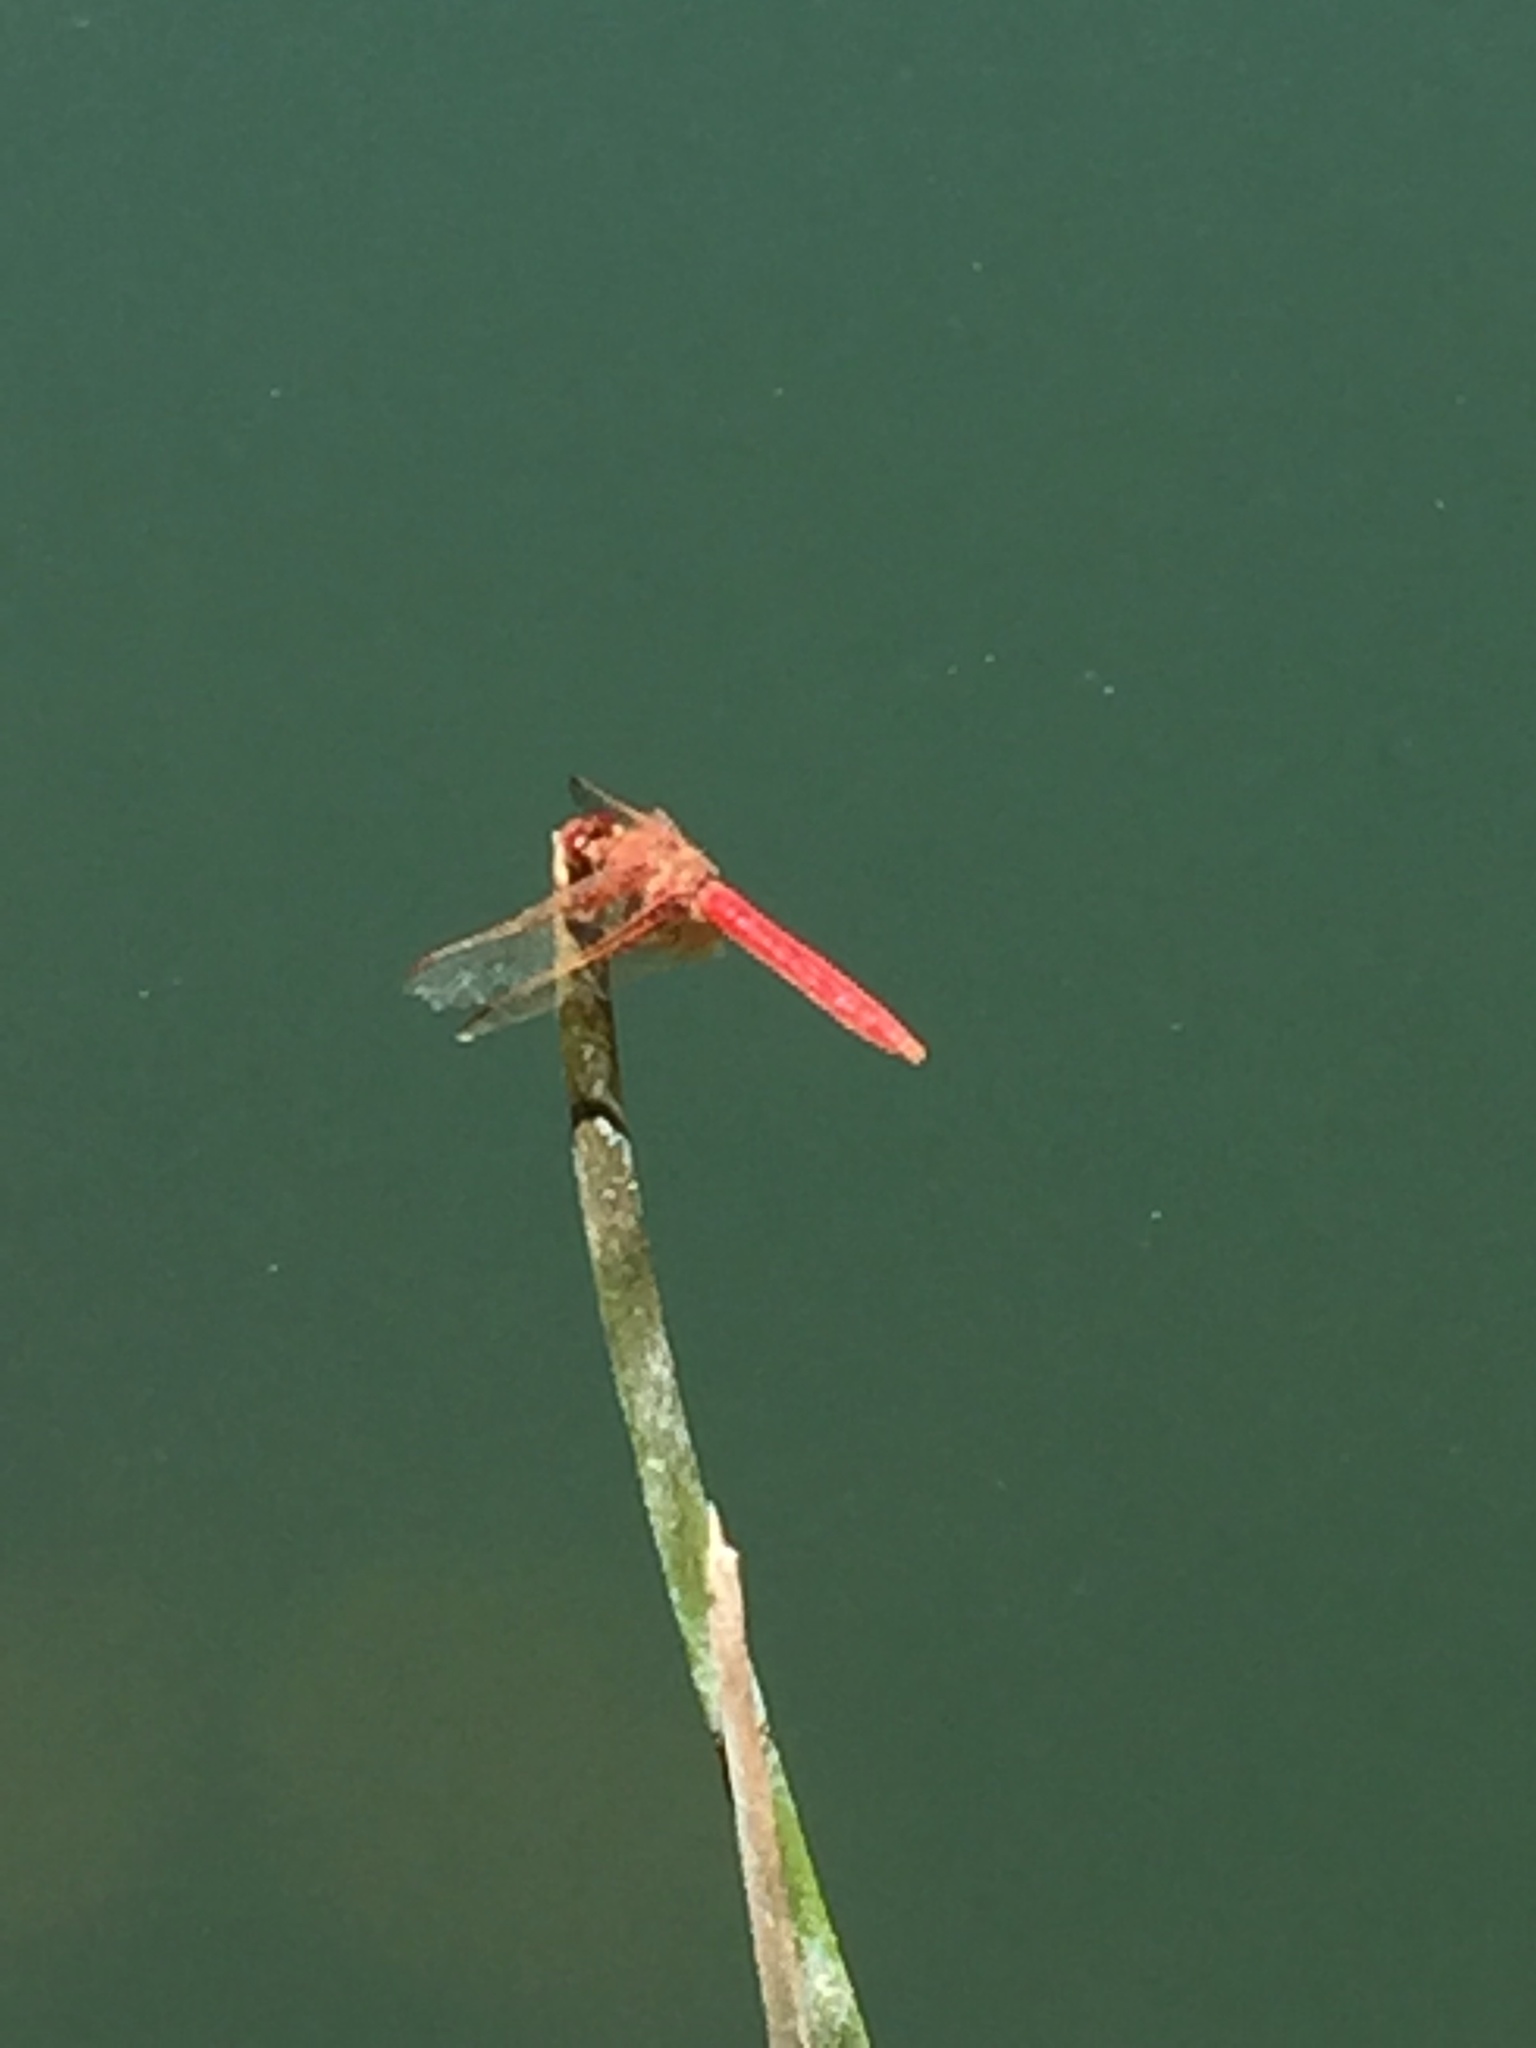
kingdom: Animalia
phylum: Arthropoda
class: Insecta
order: Odonata
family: Libellulidae
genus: Sympetrum
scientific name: Sympetrum illotum
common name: Cardinal meadowhawk
